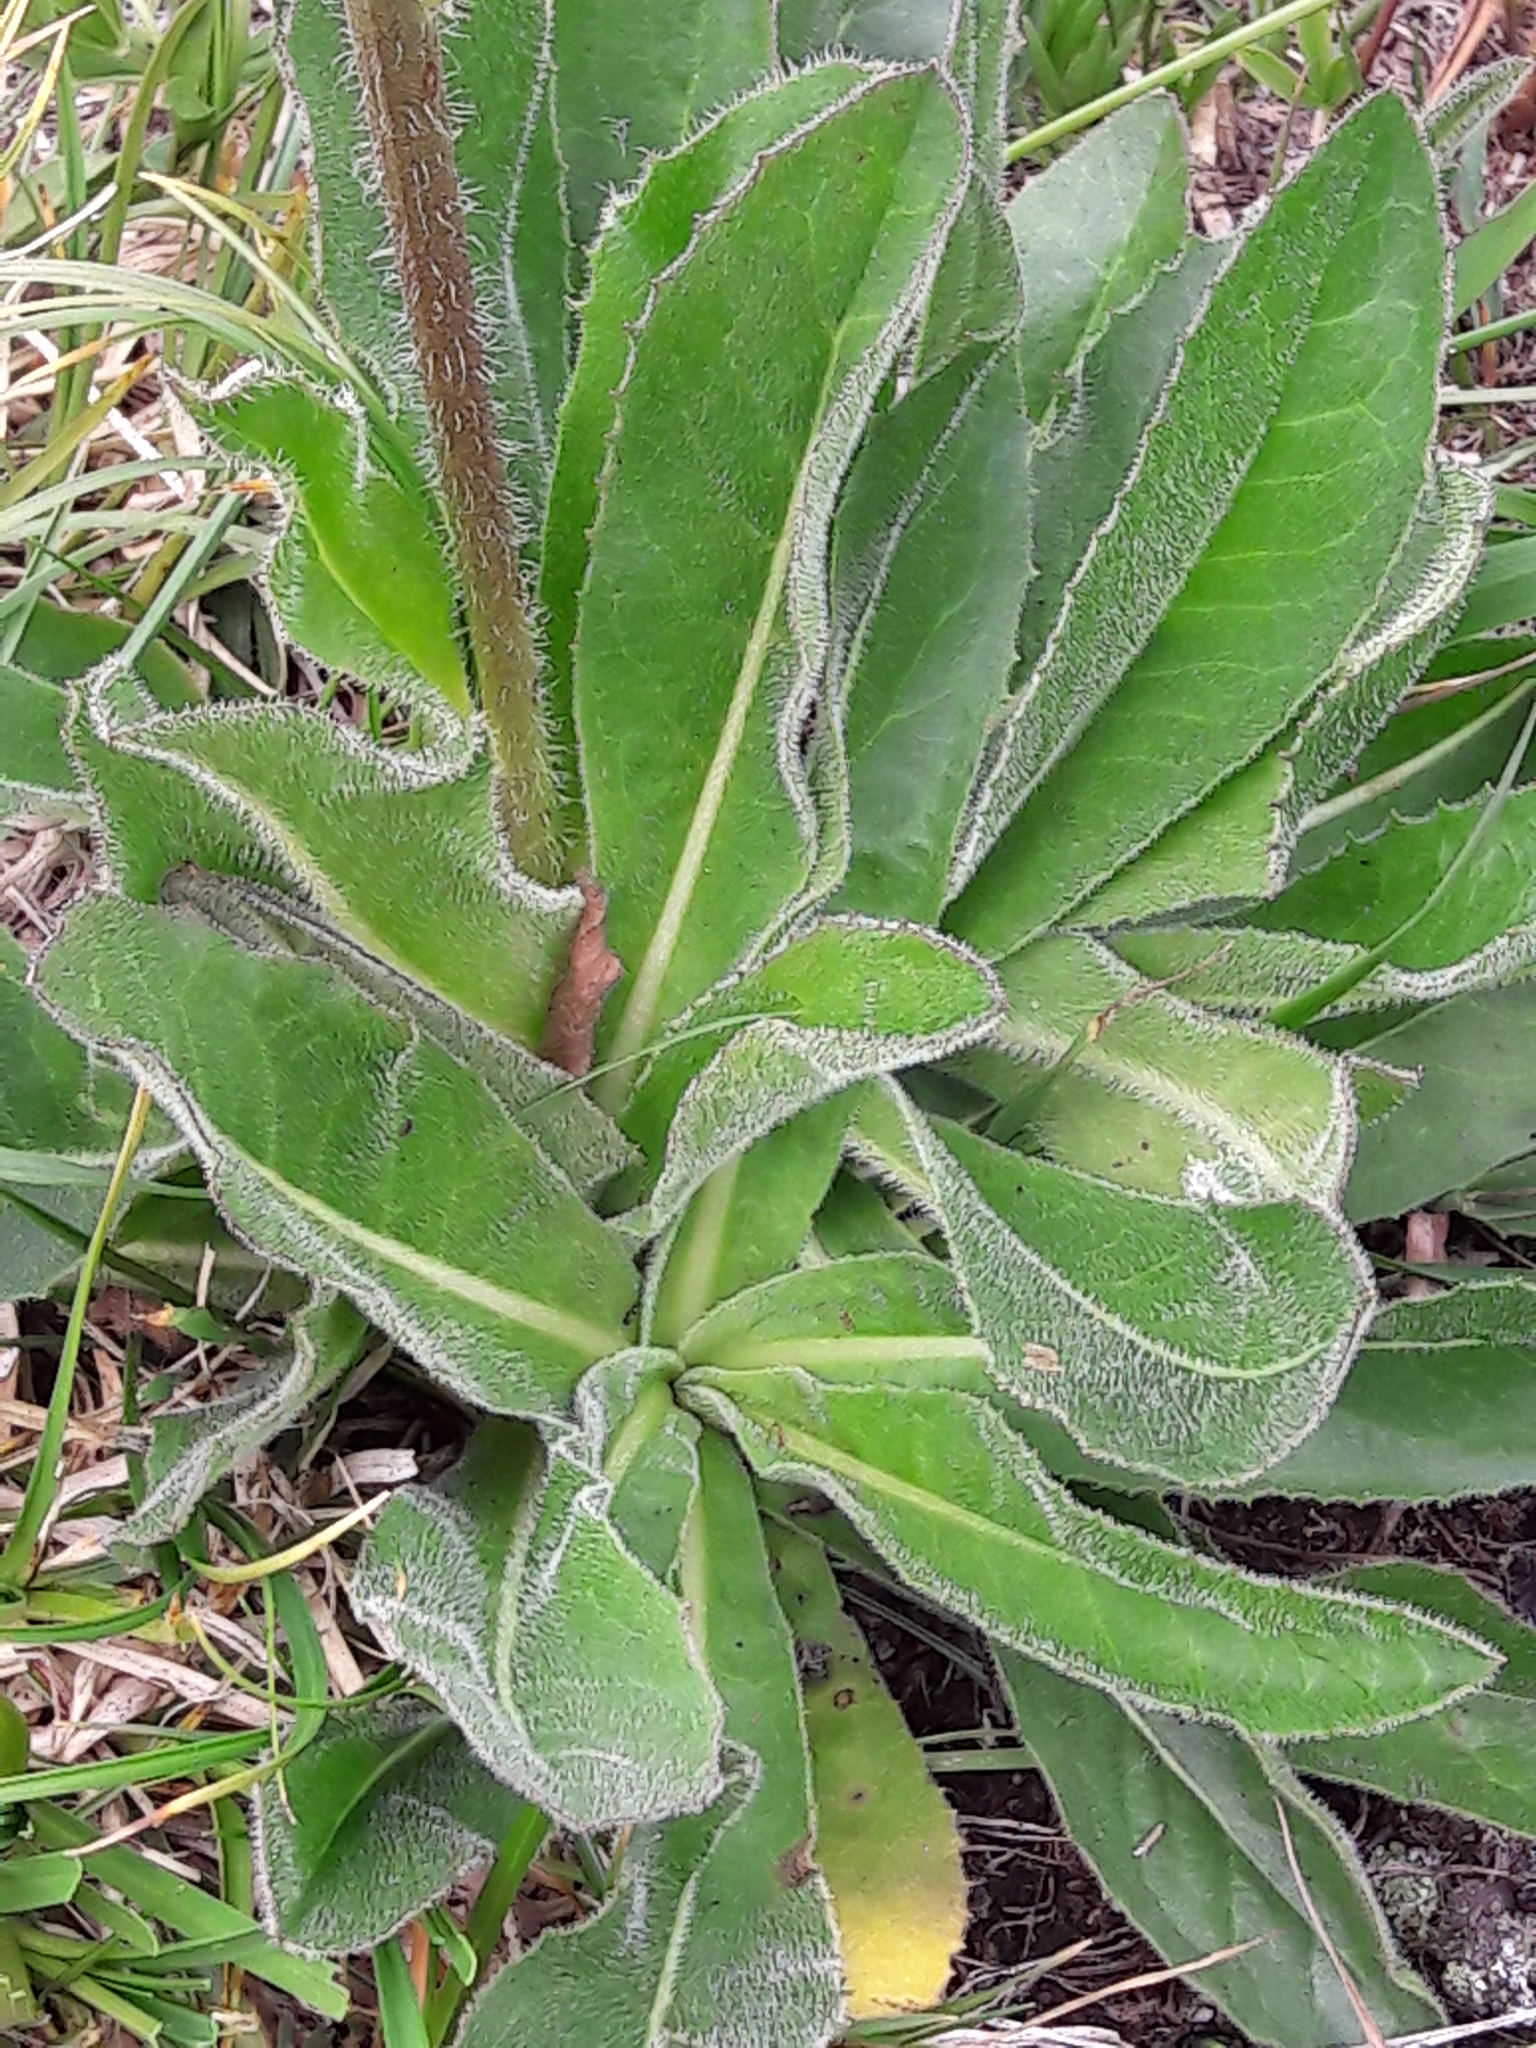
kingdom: Plantae
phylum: Tracheophyta
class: Magnoliopsida
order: Asterales
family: Asteraceae
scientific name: Asteraceae
